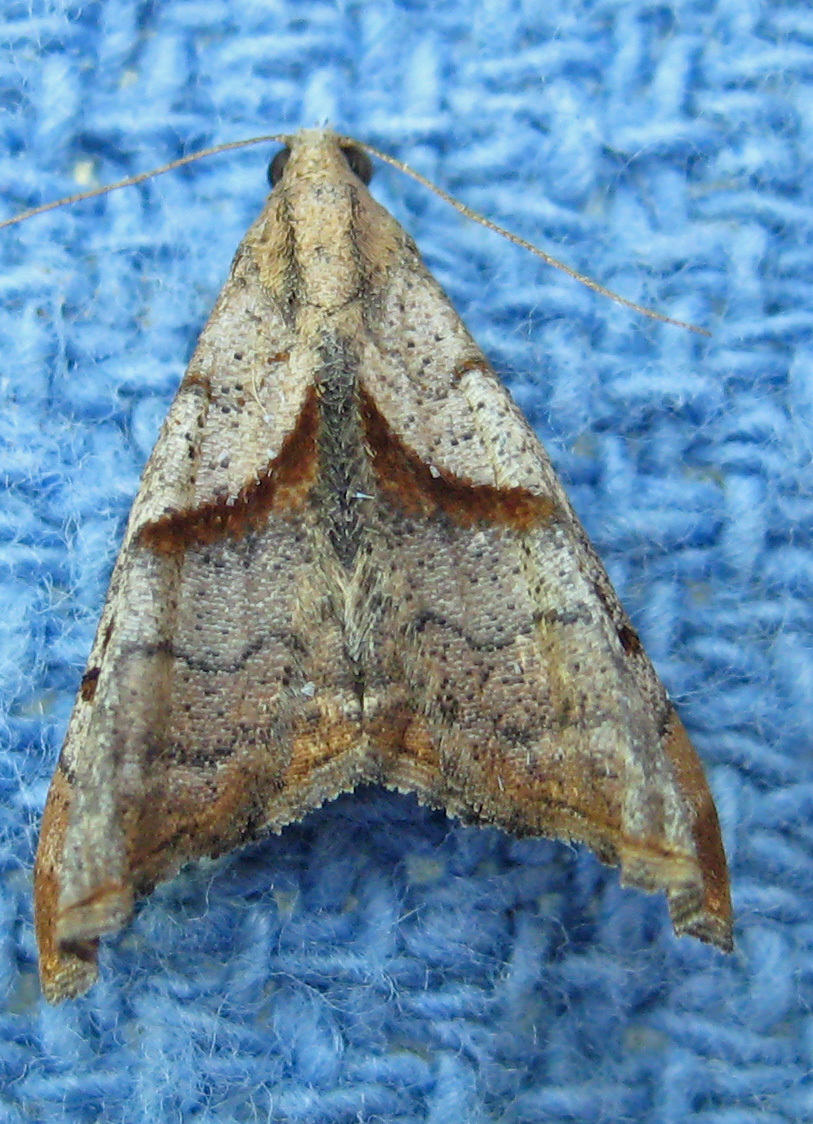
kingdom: Animalia
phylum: Arthropoda
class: Insecta
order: Lepidoptera
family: Erebidae
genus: Palthis
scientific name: Palthis angulalis
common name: Dark-spotted palthis moth
